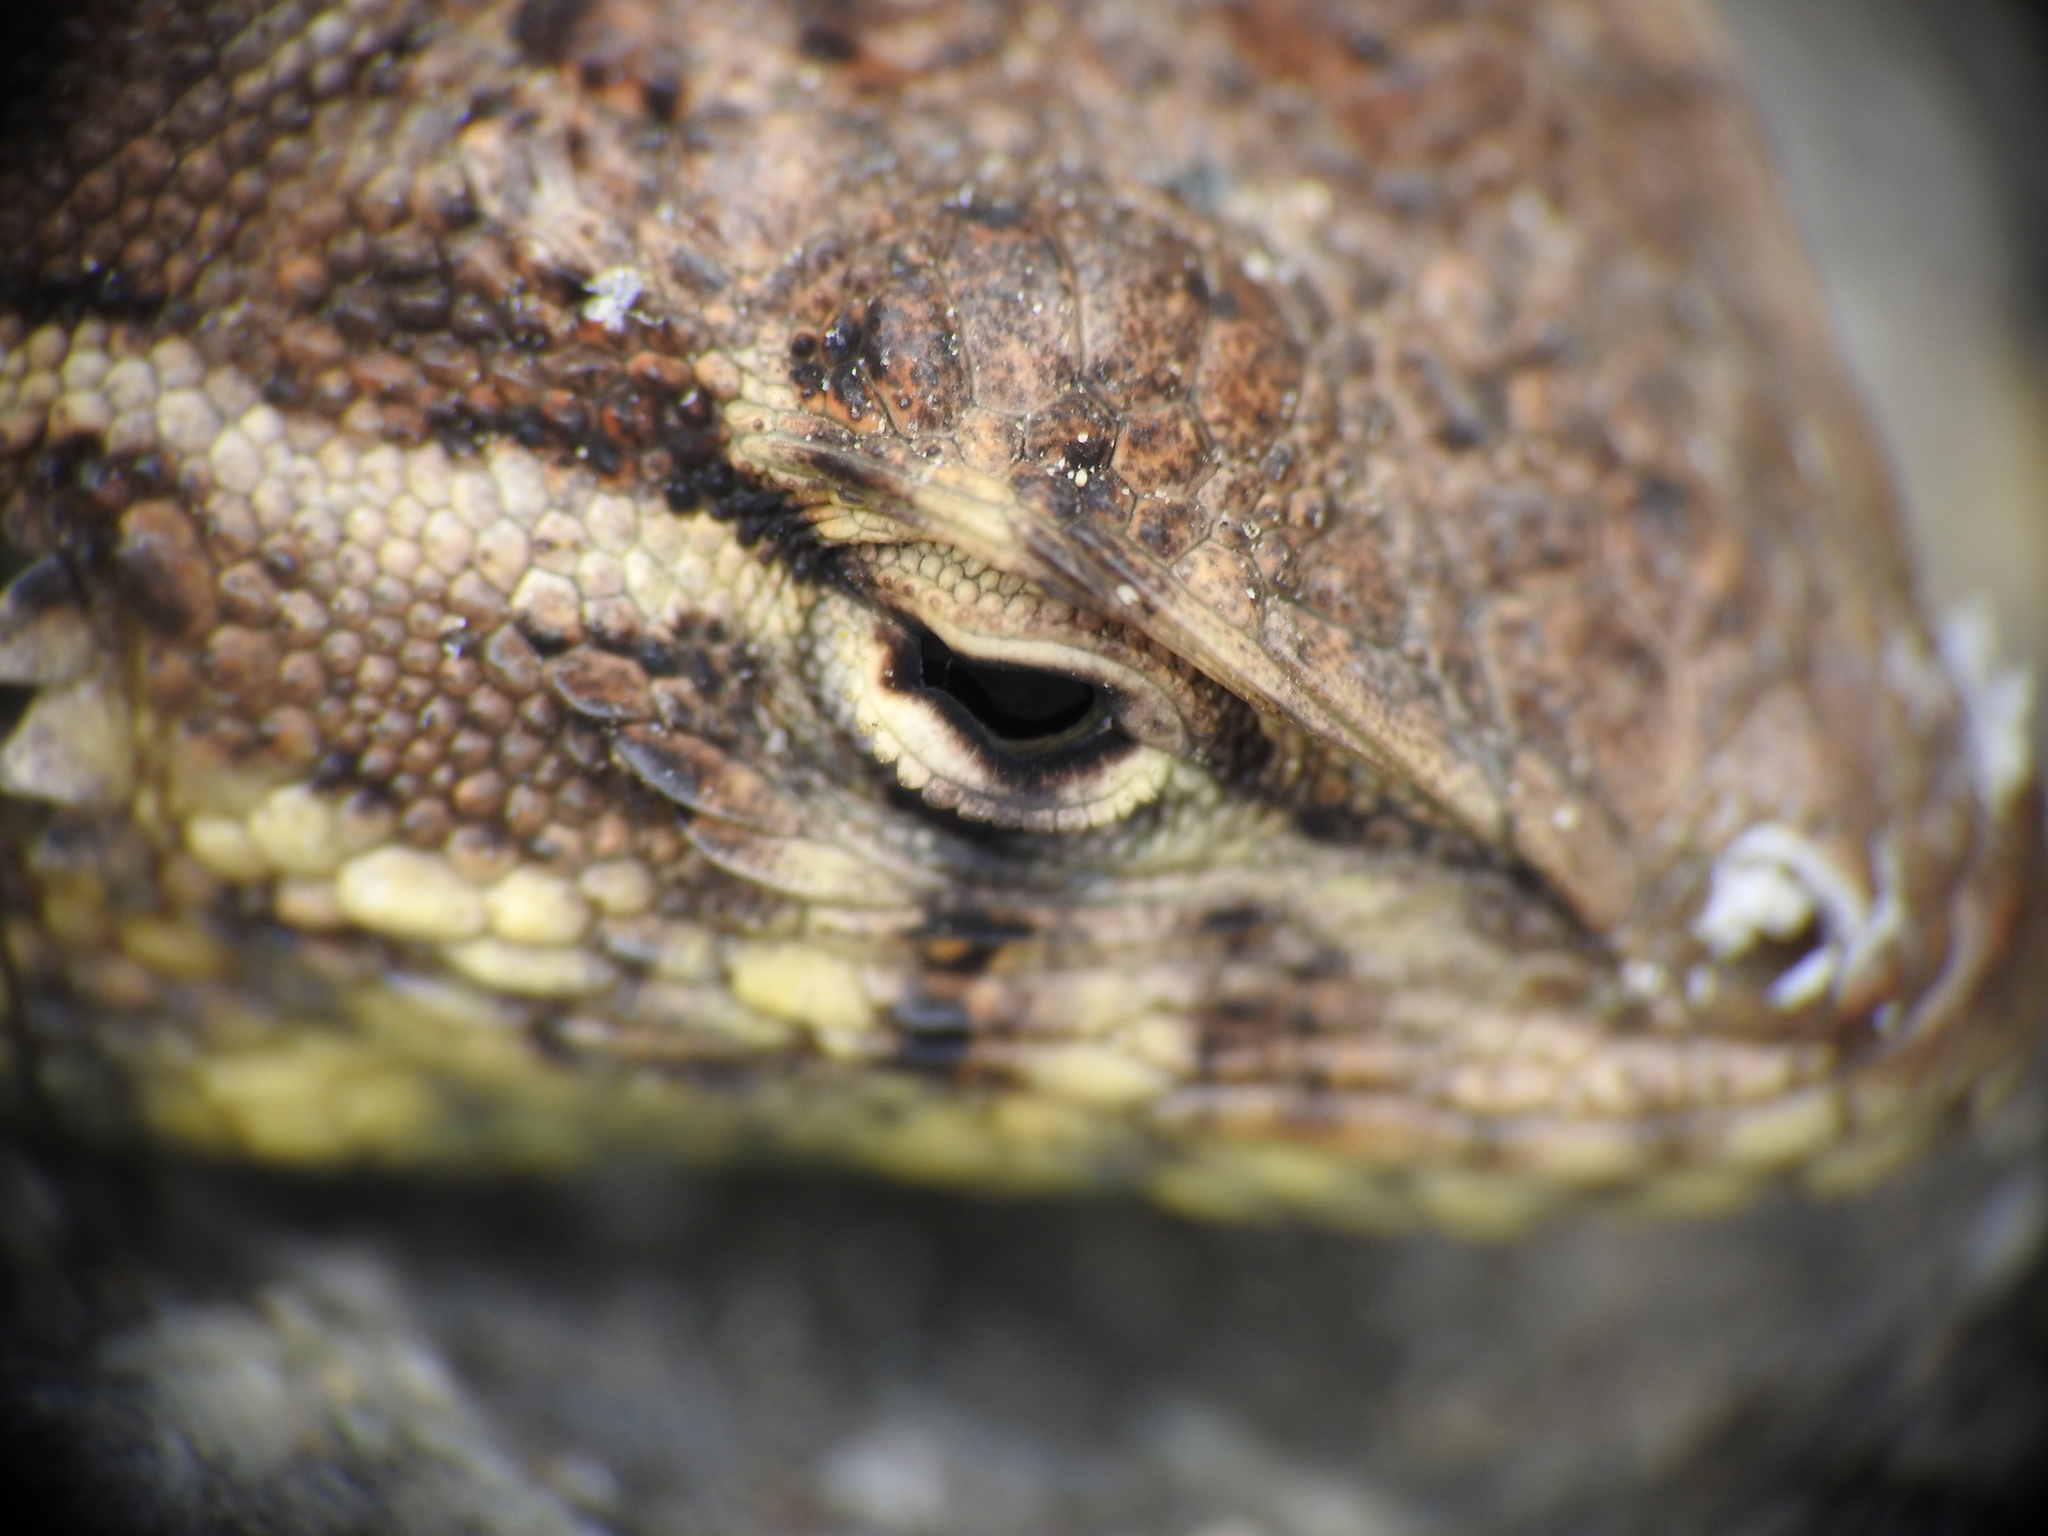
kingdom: Animalia
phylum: Chordata
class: Squamata
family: Phrynosomatidae
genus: Uta
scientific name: Uta stansburiana
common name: Side-blotched lizard
